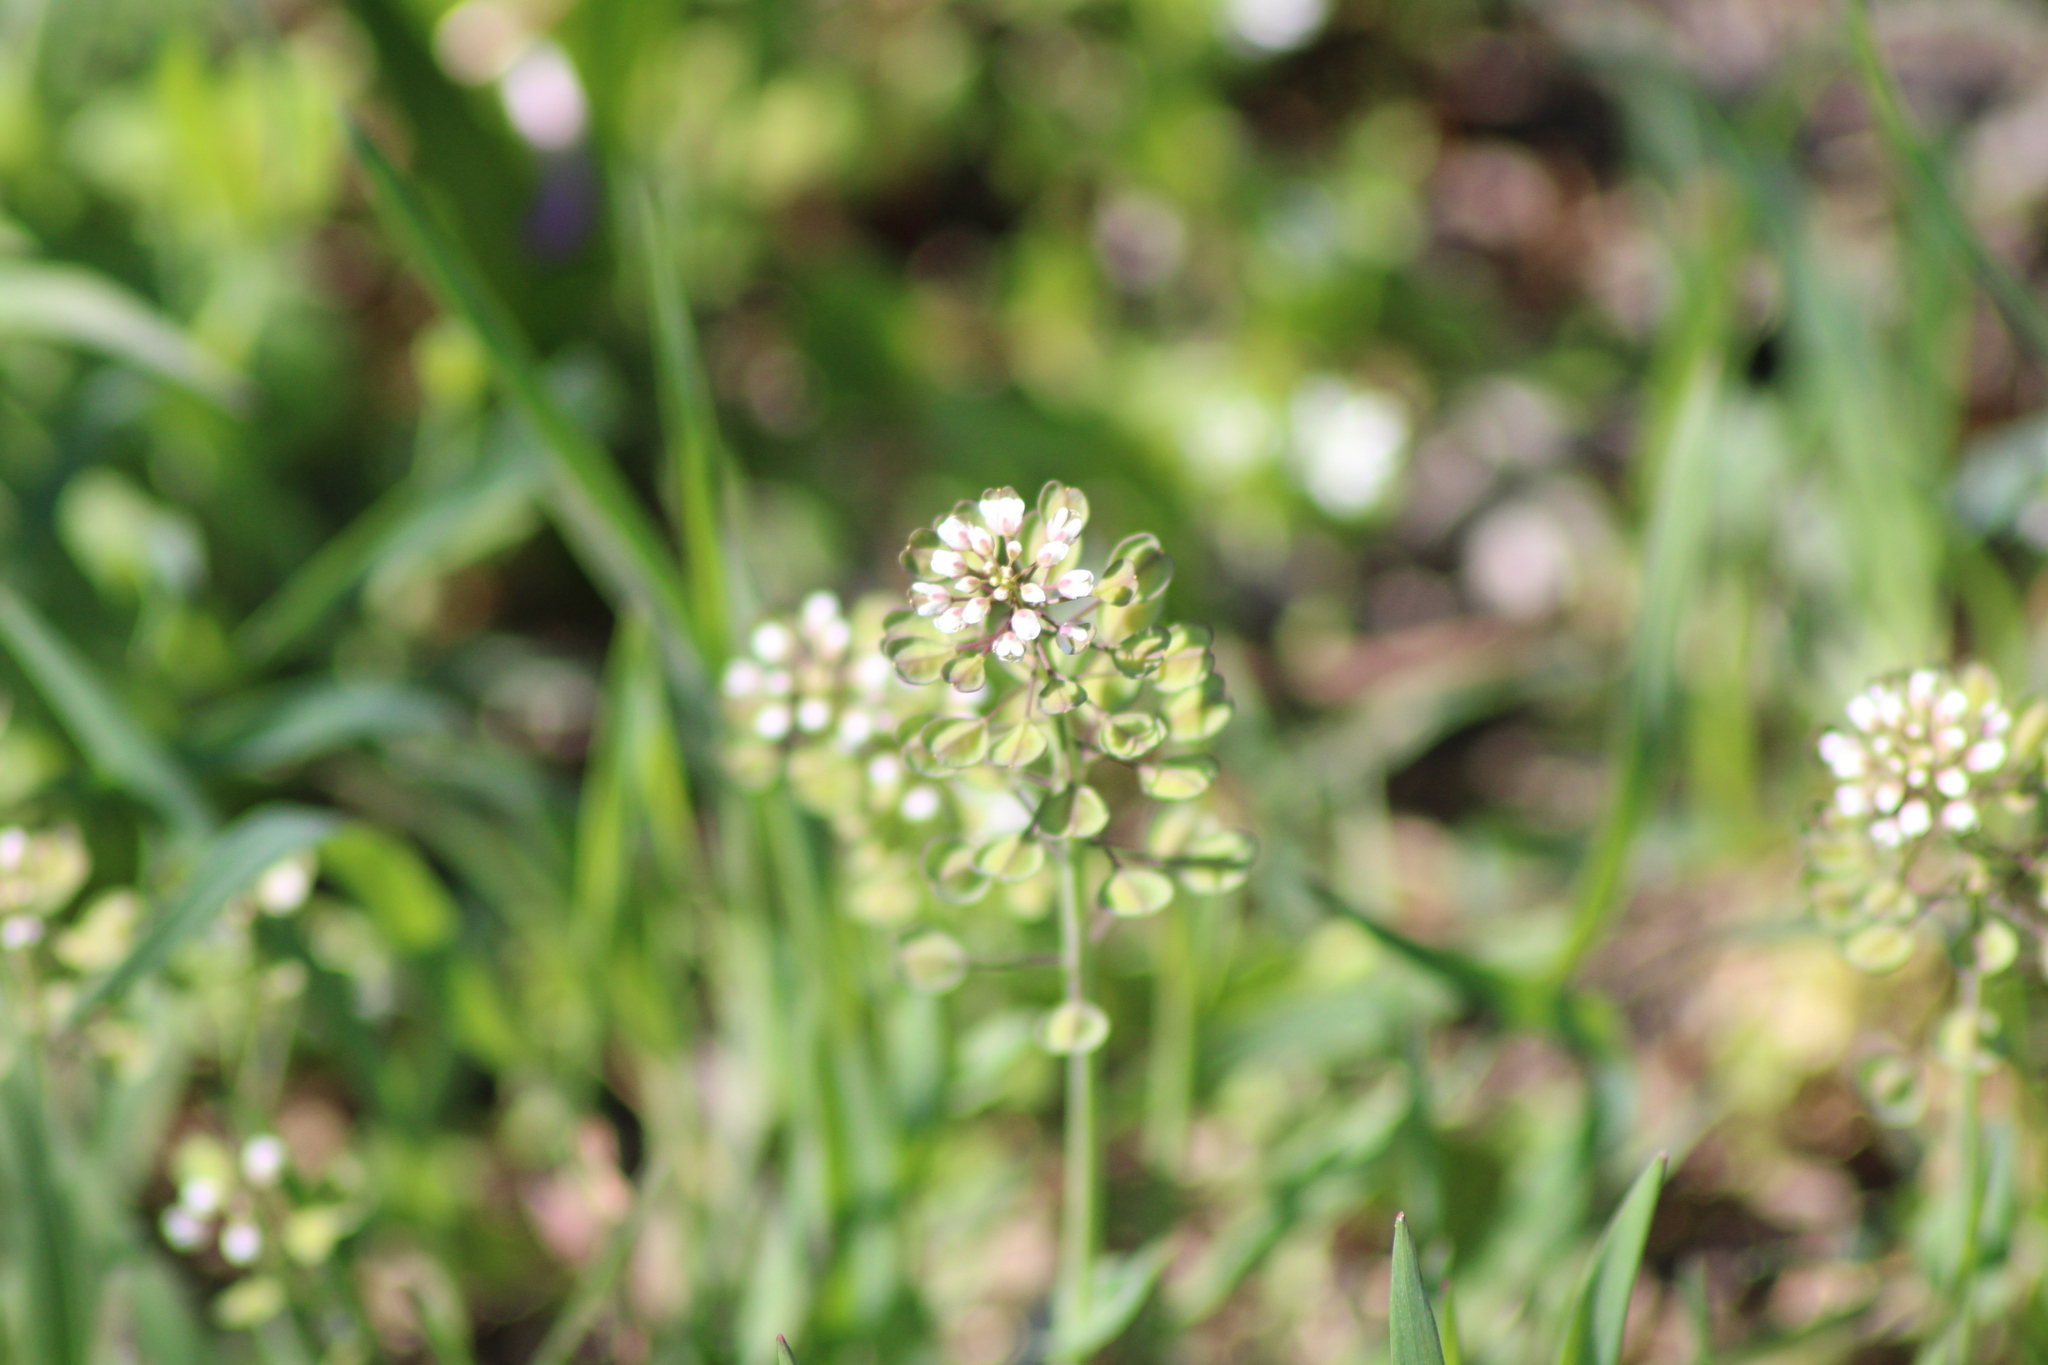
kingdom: Plantae
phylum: Tracheophyta
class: Magnoliopsida
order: Brassicales
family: Brassicaceae
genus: Noccaea
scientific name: Noccaea perfoliata
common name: Perfoliate pennycress
